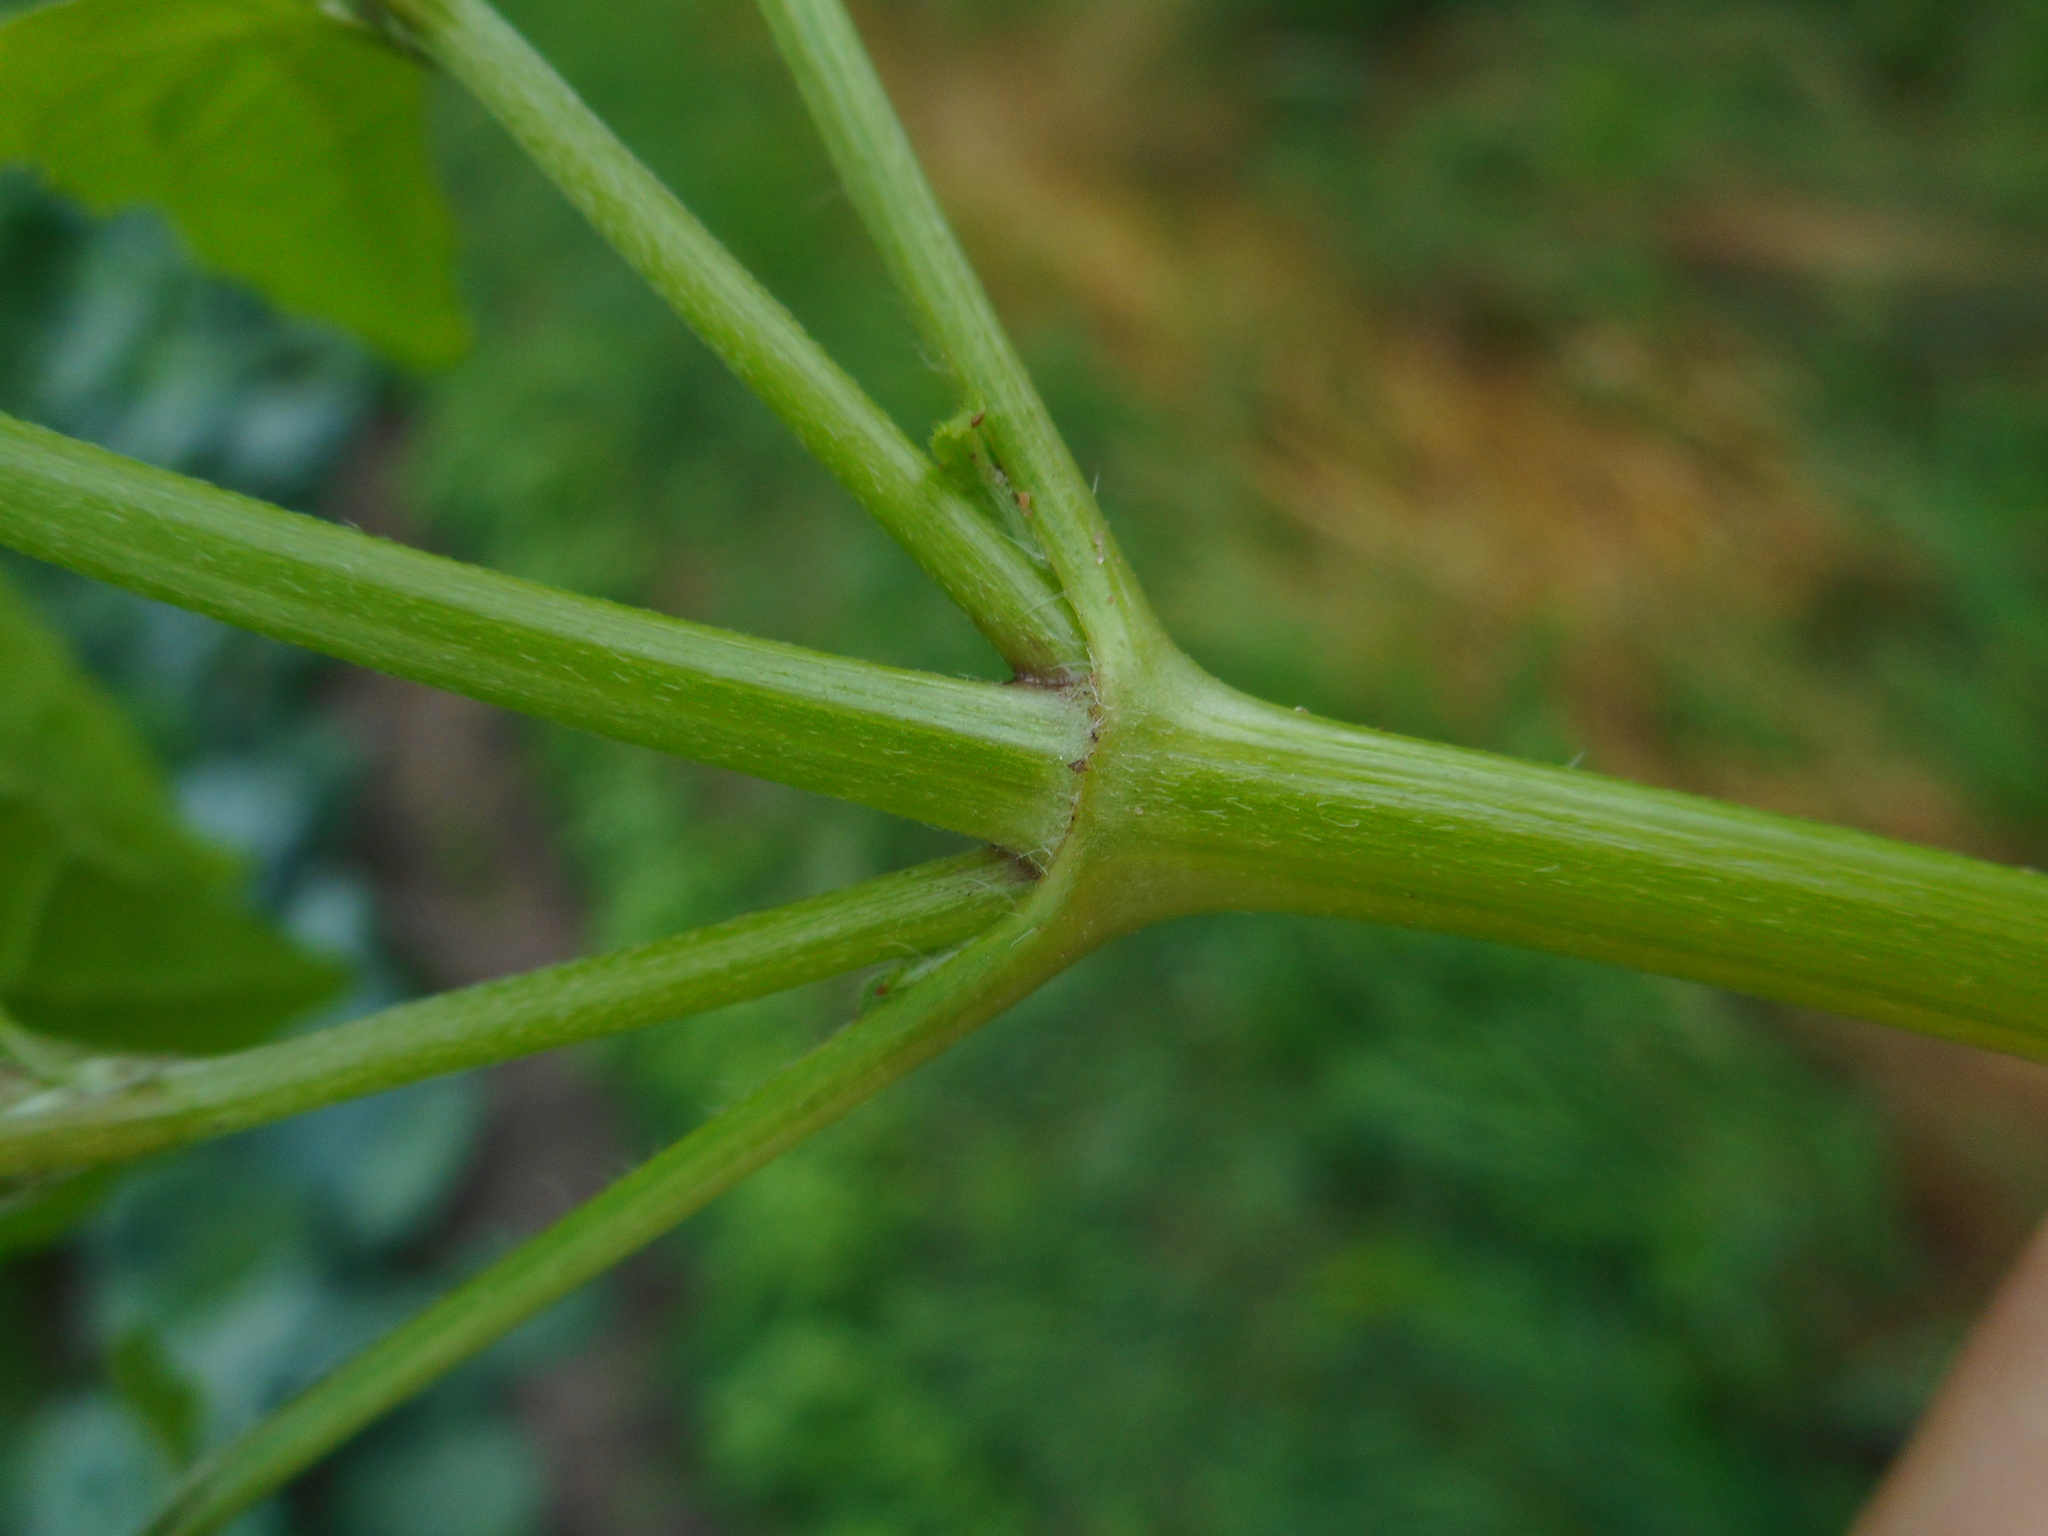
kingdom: Plantae
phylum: Tracheophyta
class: Magnoliopsida
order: Asterales
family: Asteraceae
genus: Galinsoga
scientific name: Galinsoga parviflora
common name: Gallant soldier
